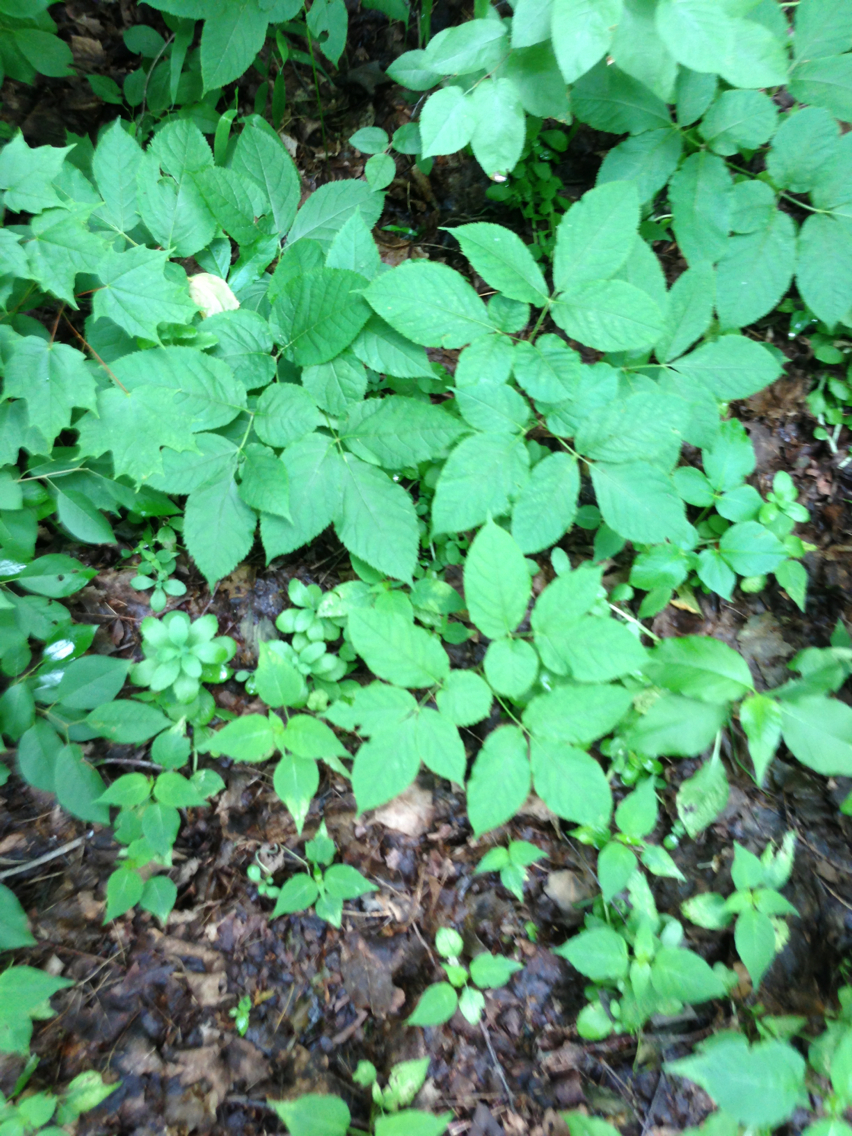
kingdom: Plantae
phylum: Tracheophyta
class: Magnoliopsida
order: Apiales
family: Araliaceae
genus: Aralia
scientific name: Aralia nudicaulis
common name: Wild sarsaparilla
